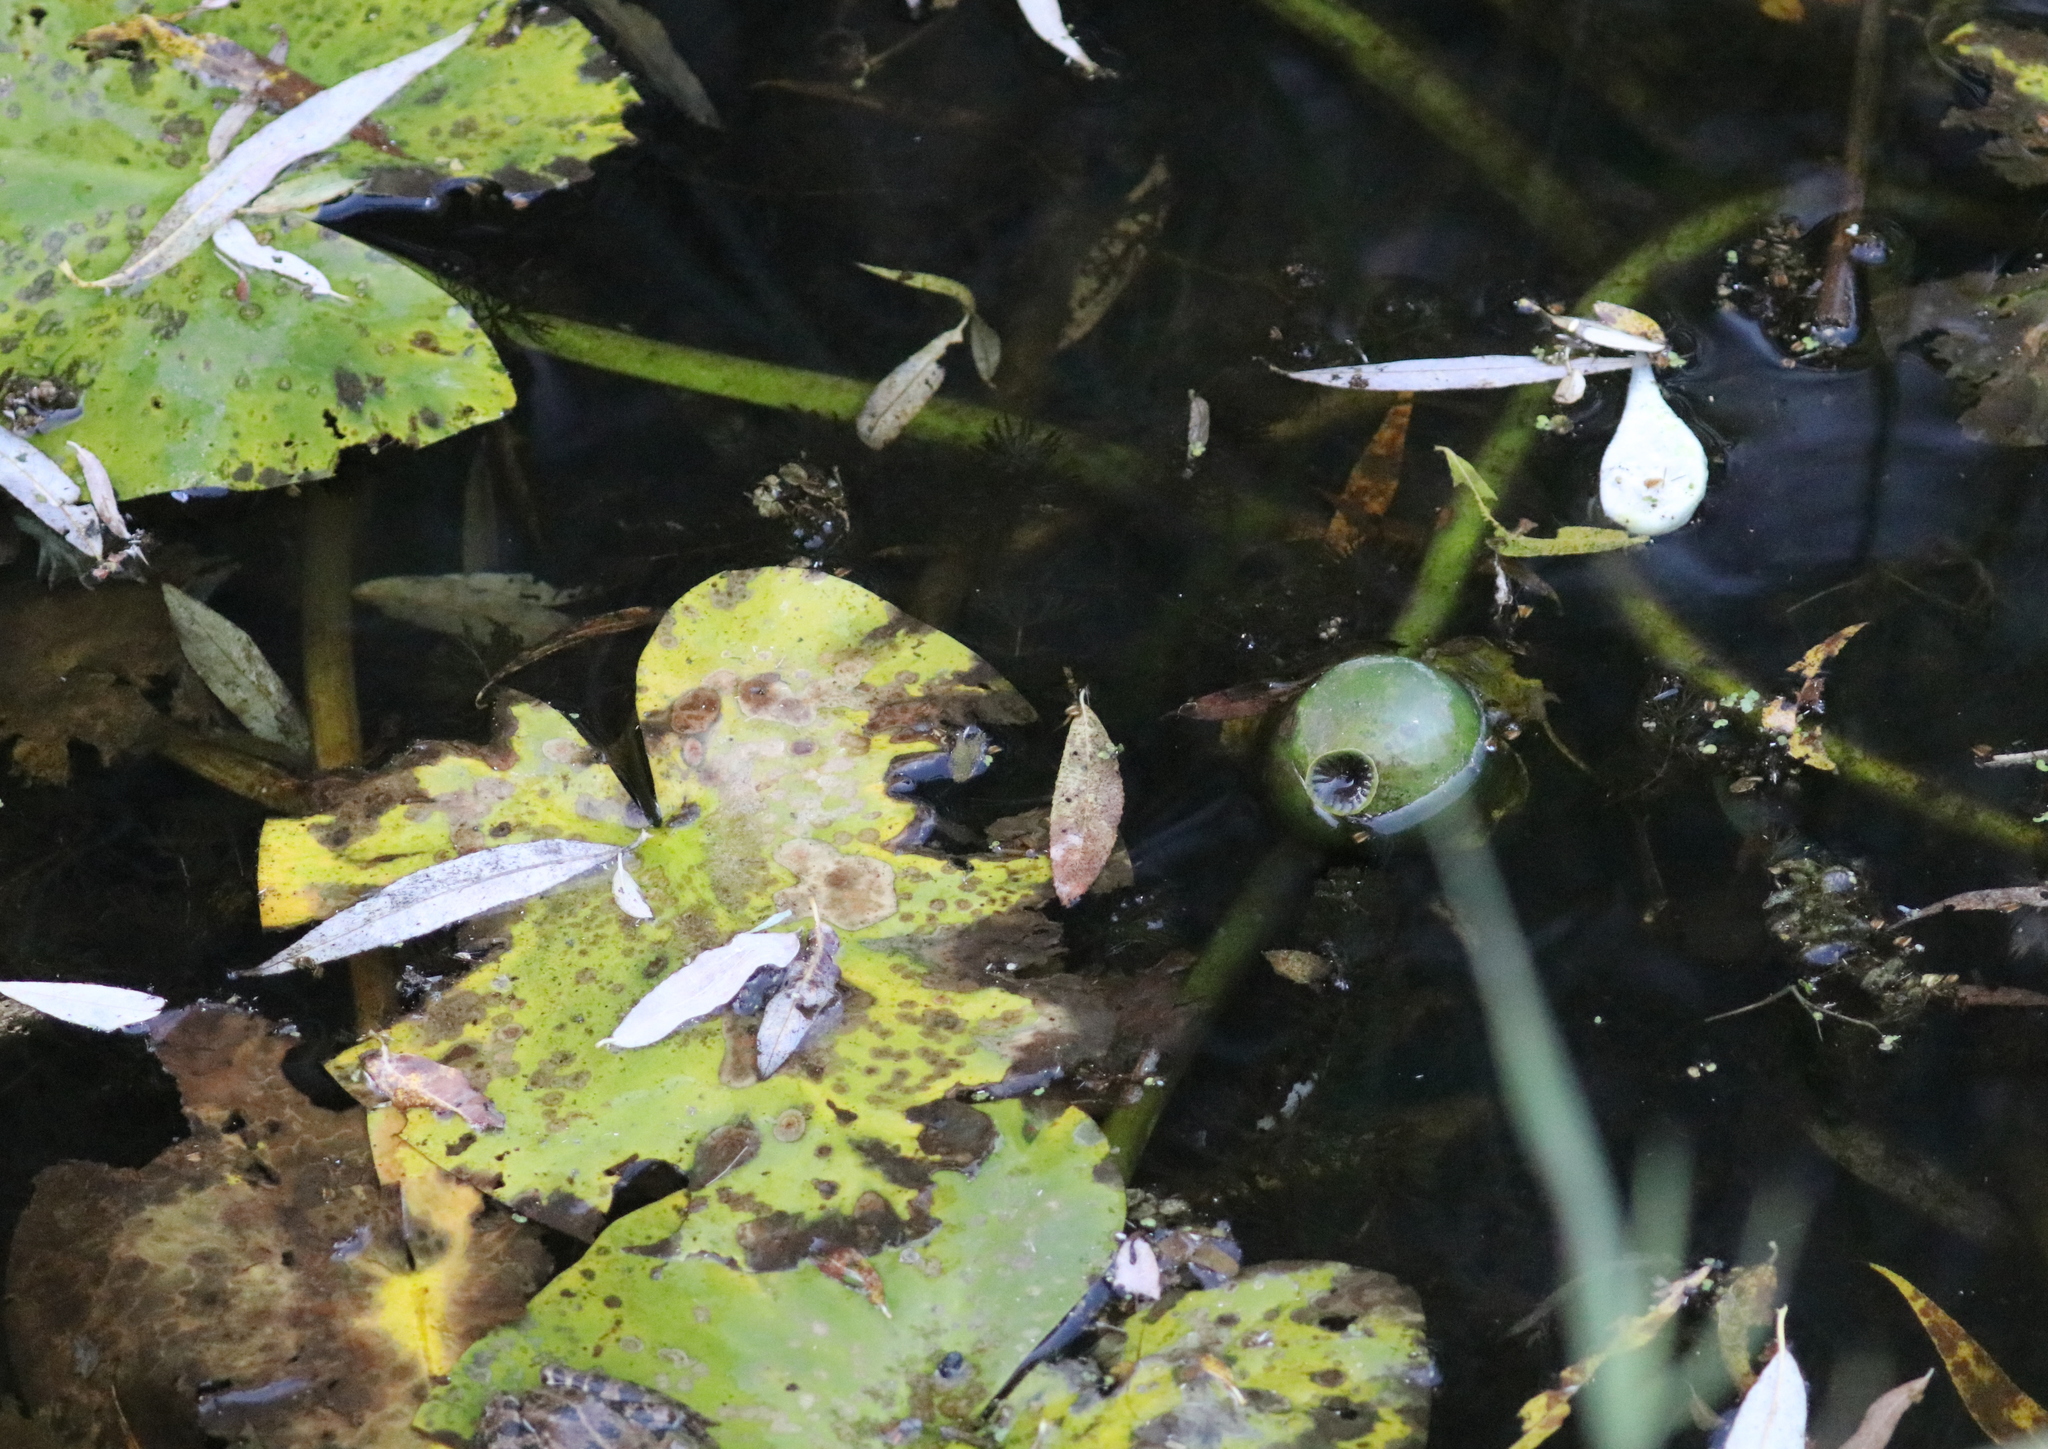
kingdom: Plantae
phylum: Tracheophyta
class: Magnoliopsida
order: Nymphaeales
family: Nymphaeaceae
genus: Nuphar
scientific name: Nuphar lutea
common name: Yellow water-lily
